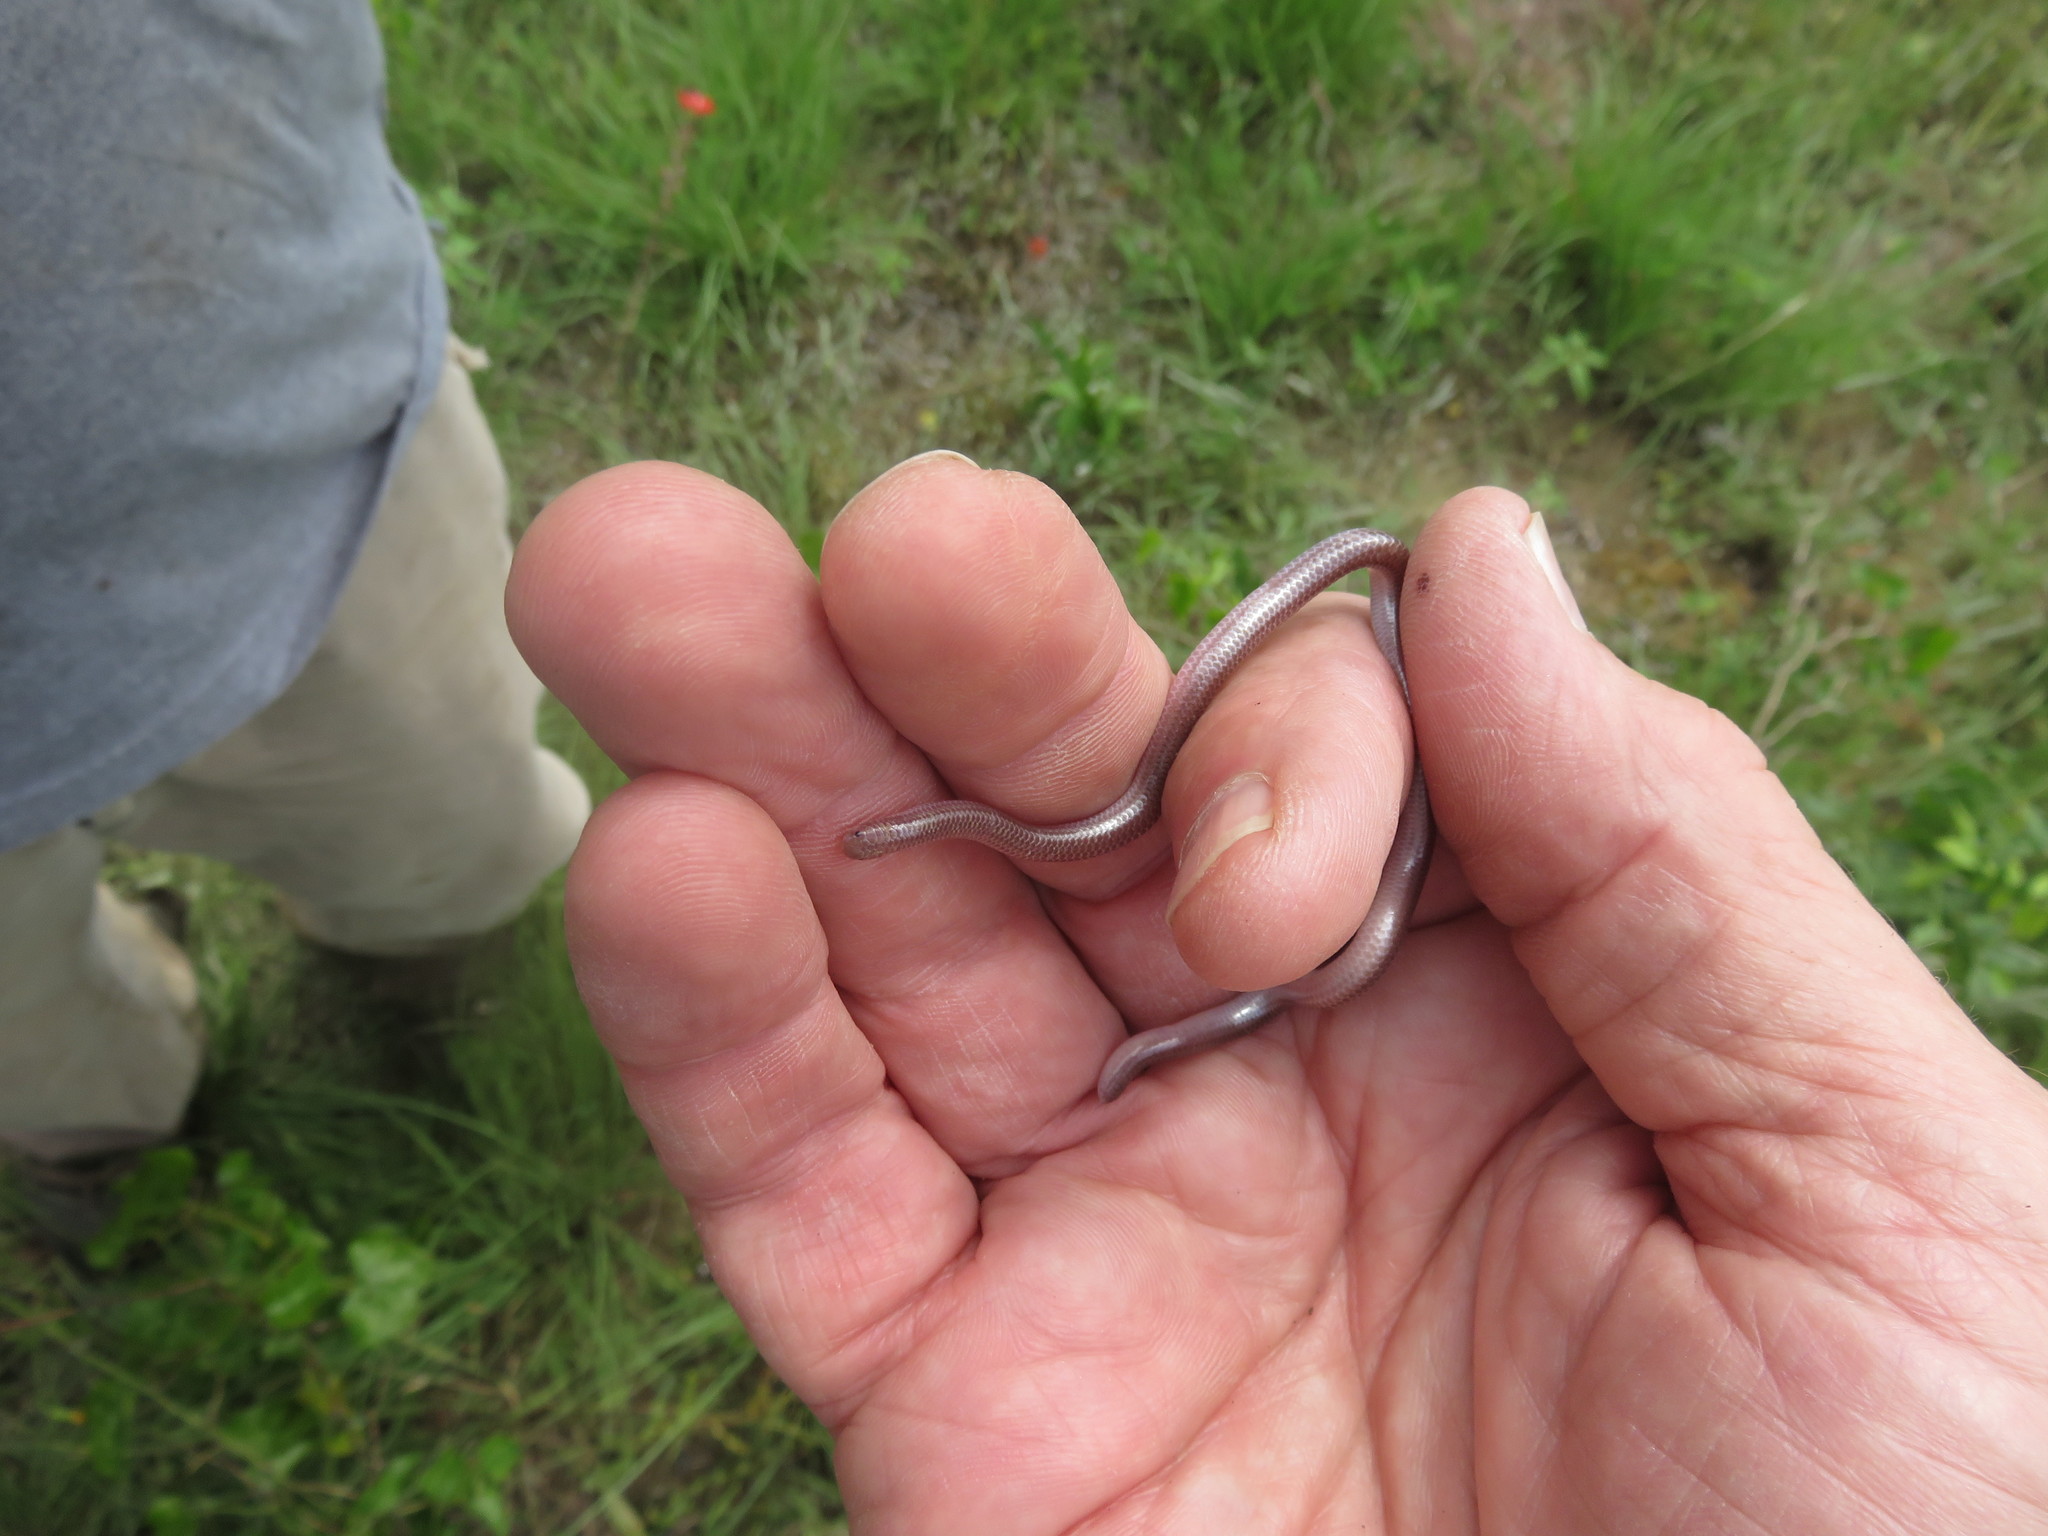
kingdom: Animalia
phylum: Chordata
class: Squamata
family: Leptotyphlopidae
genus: Rena
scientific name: Rena dulcis
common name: Texas blind snake
